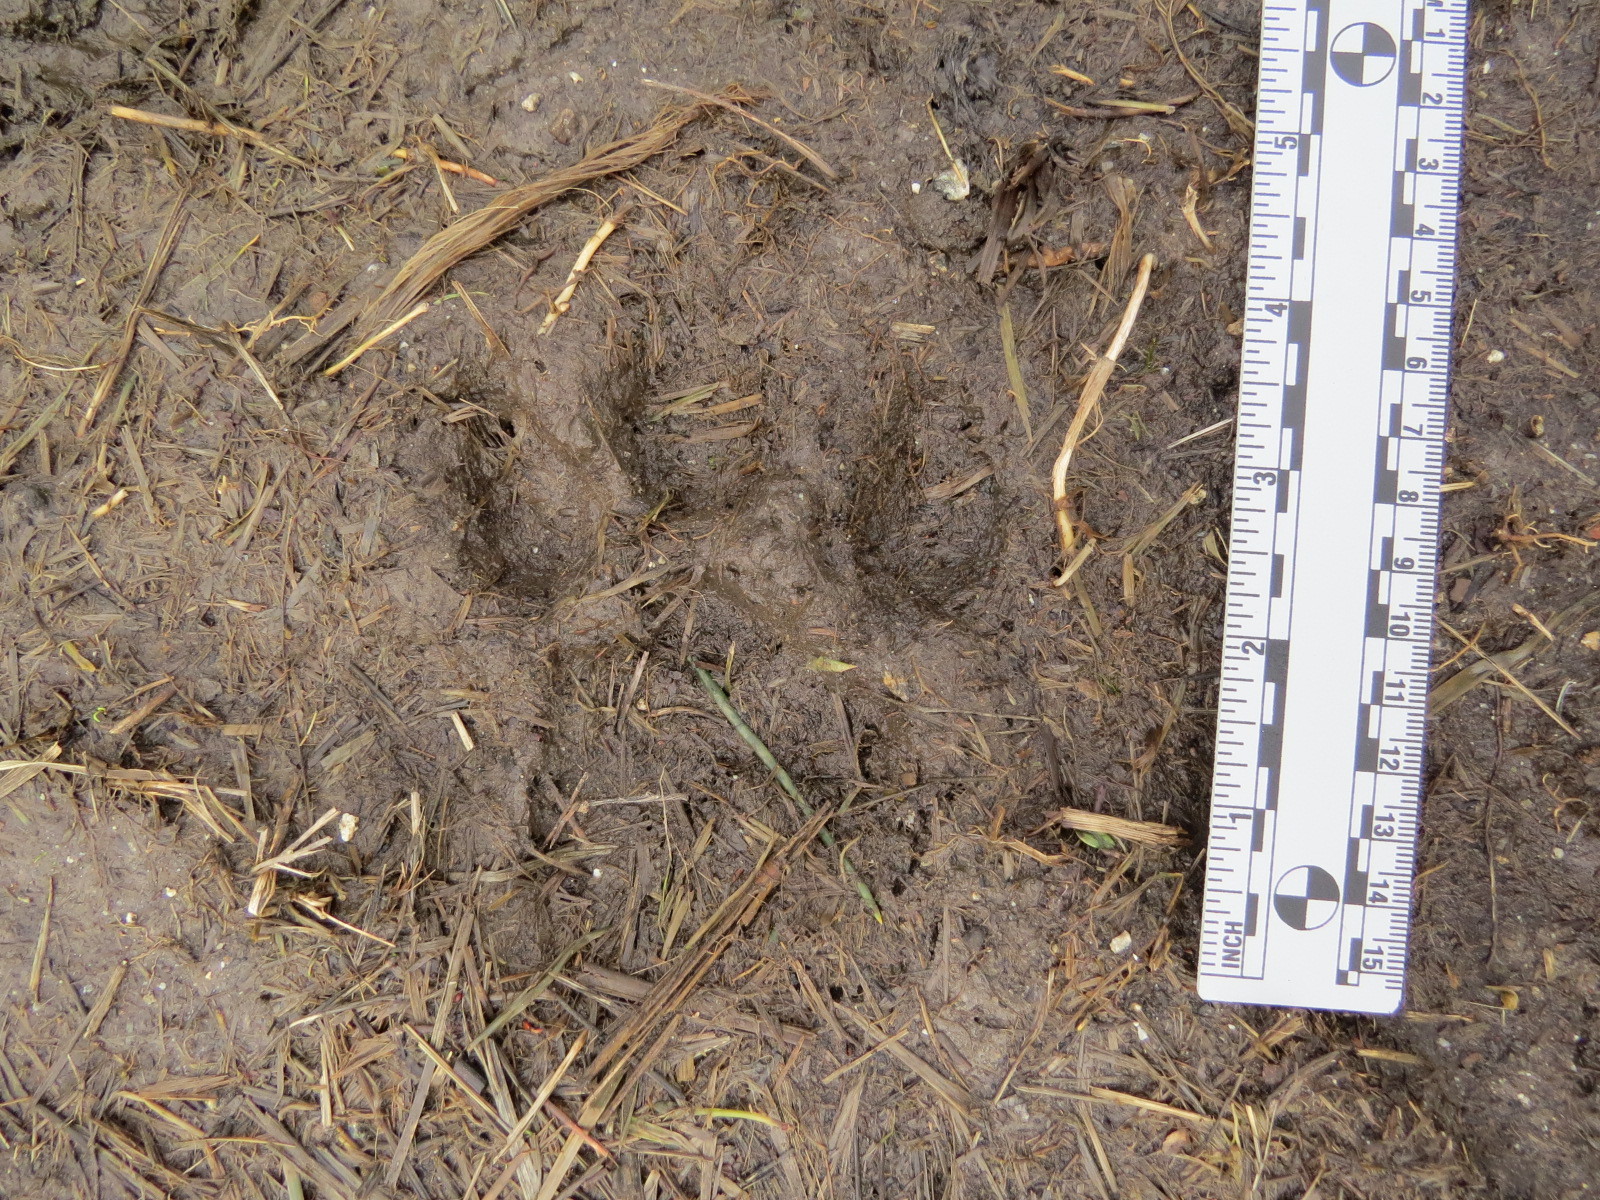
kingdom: Animalia
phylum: Chordata
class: Mammalia
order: Carnivora
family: Felidae
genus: Puma
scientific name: Puma concolor
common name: Puma
